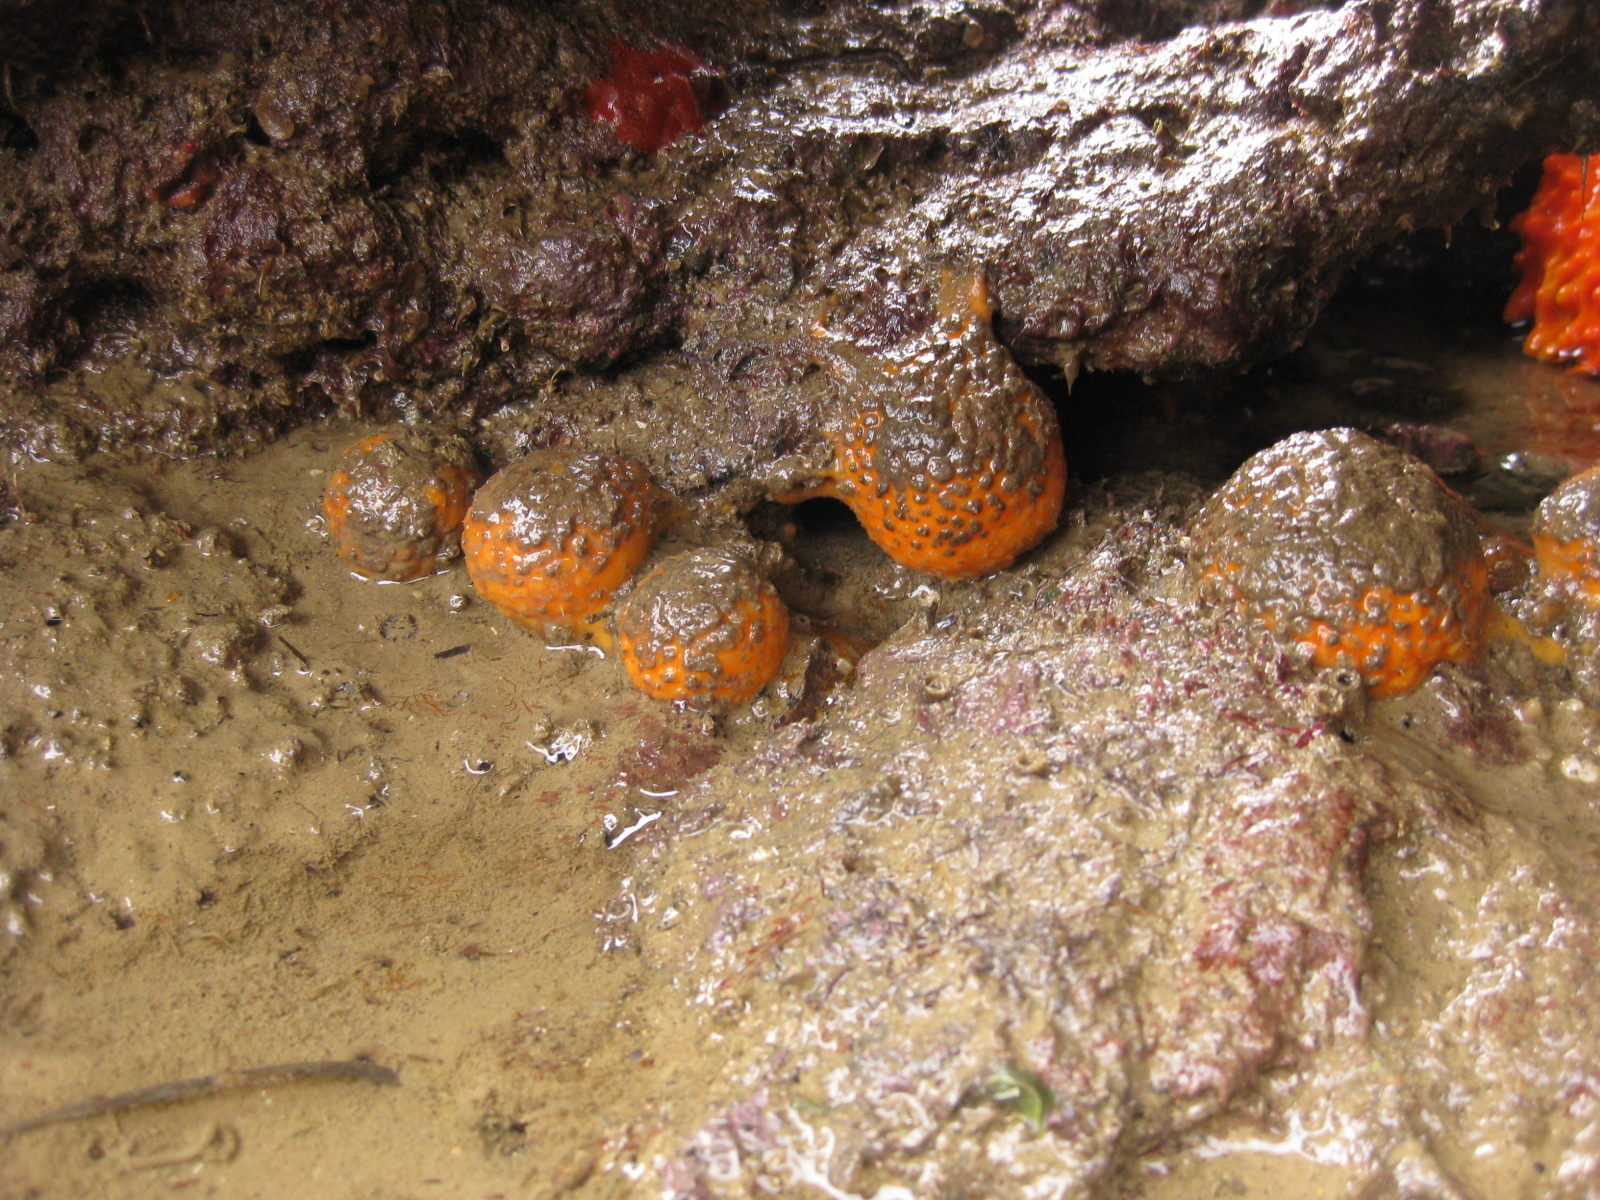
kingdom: Animalia
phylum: Porifera
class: Demospongiae
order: Tethyida
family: Tethyidae
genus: Tethya
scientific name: Tethya burtoni
